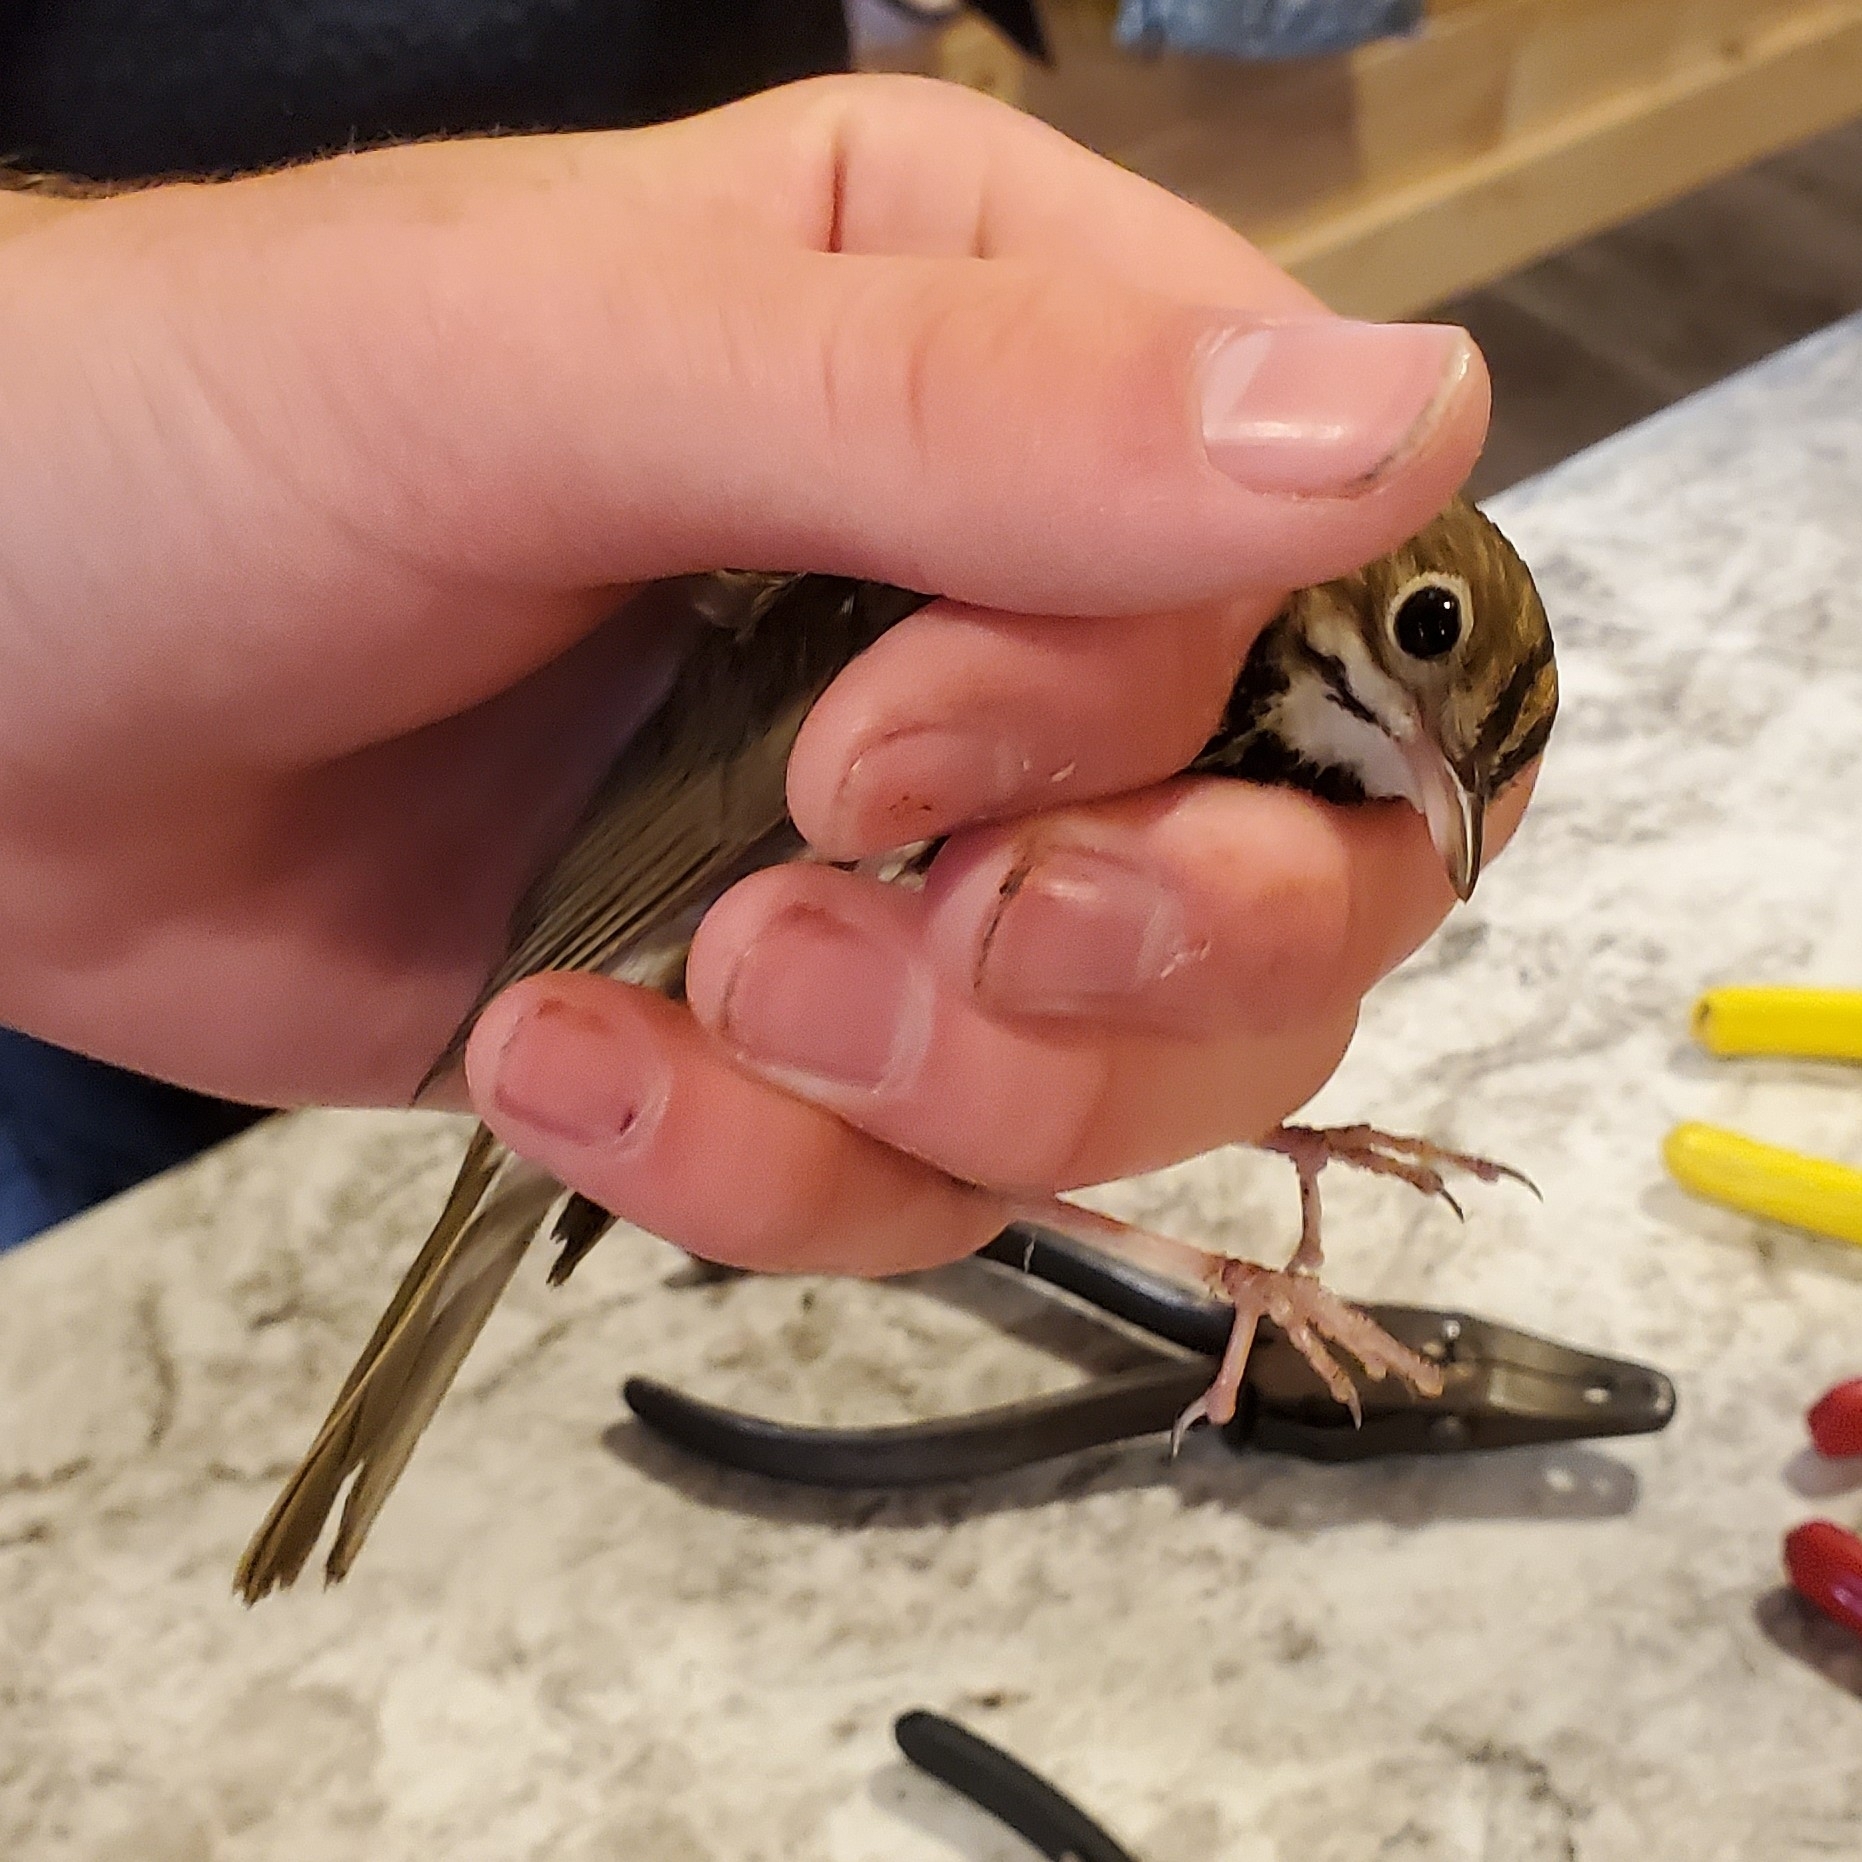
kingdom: Animalia
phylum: Chordata
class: Aves
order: Passeriformes
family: Parulidae
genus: Seiurus
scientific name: Seiurus aurocapilla
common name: Ovenbird
